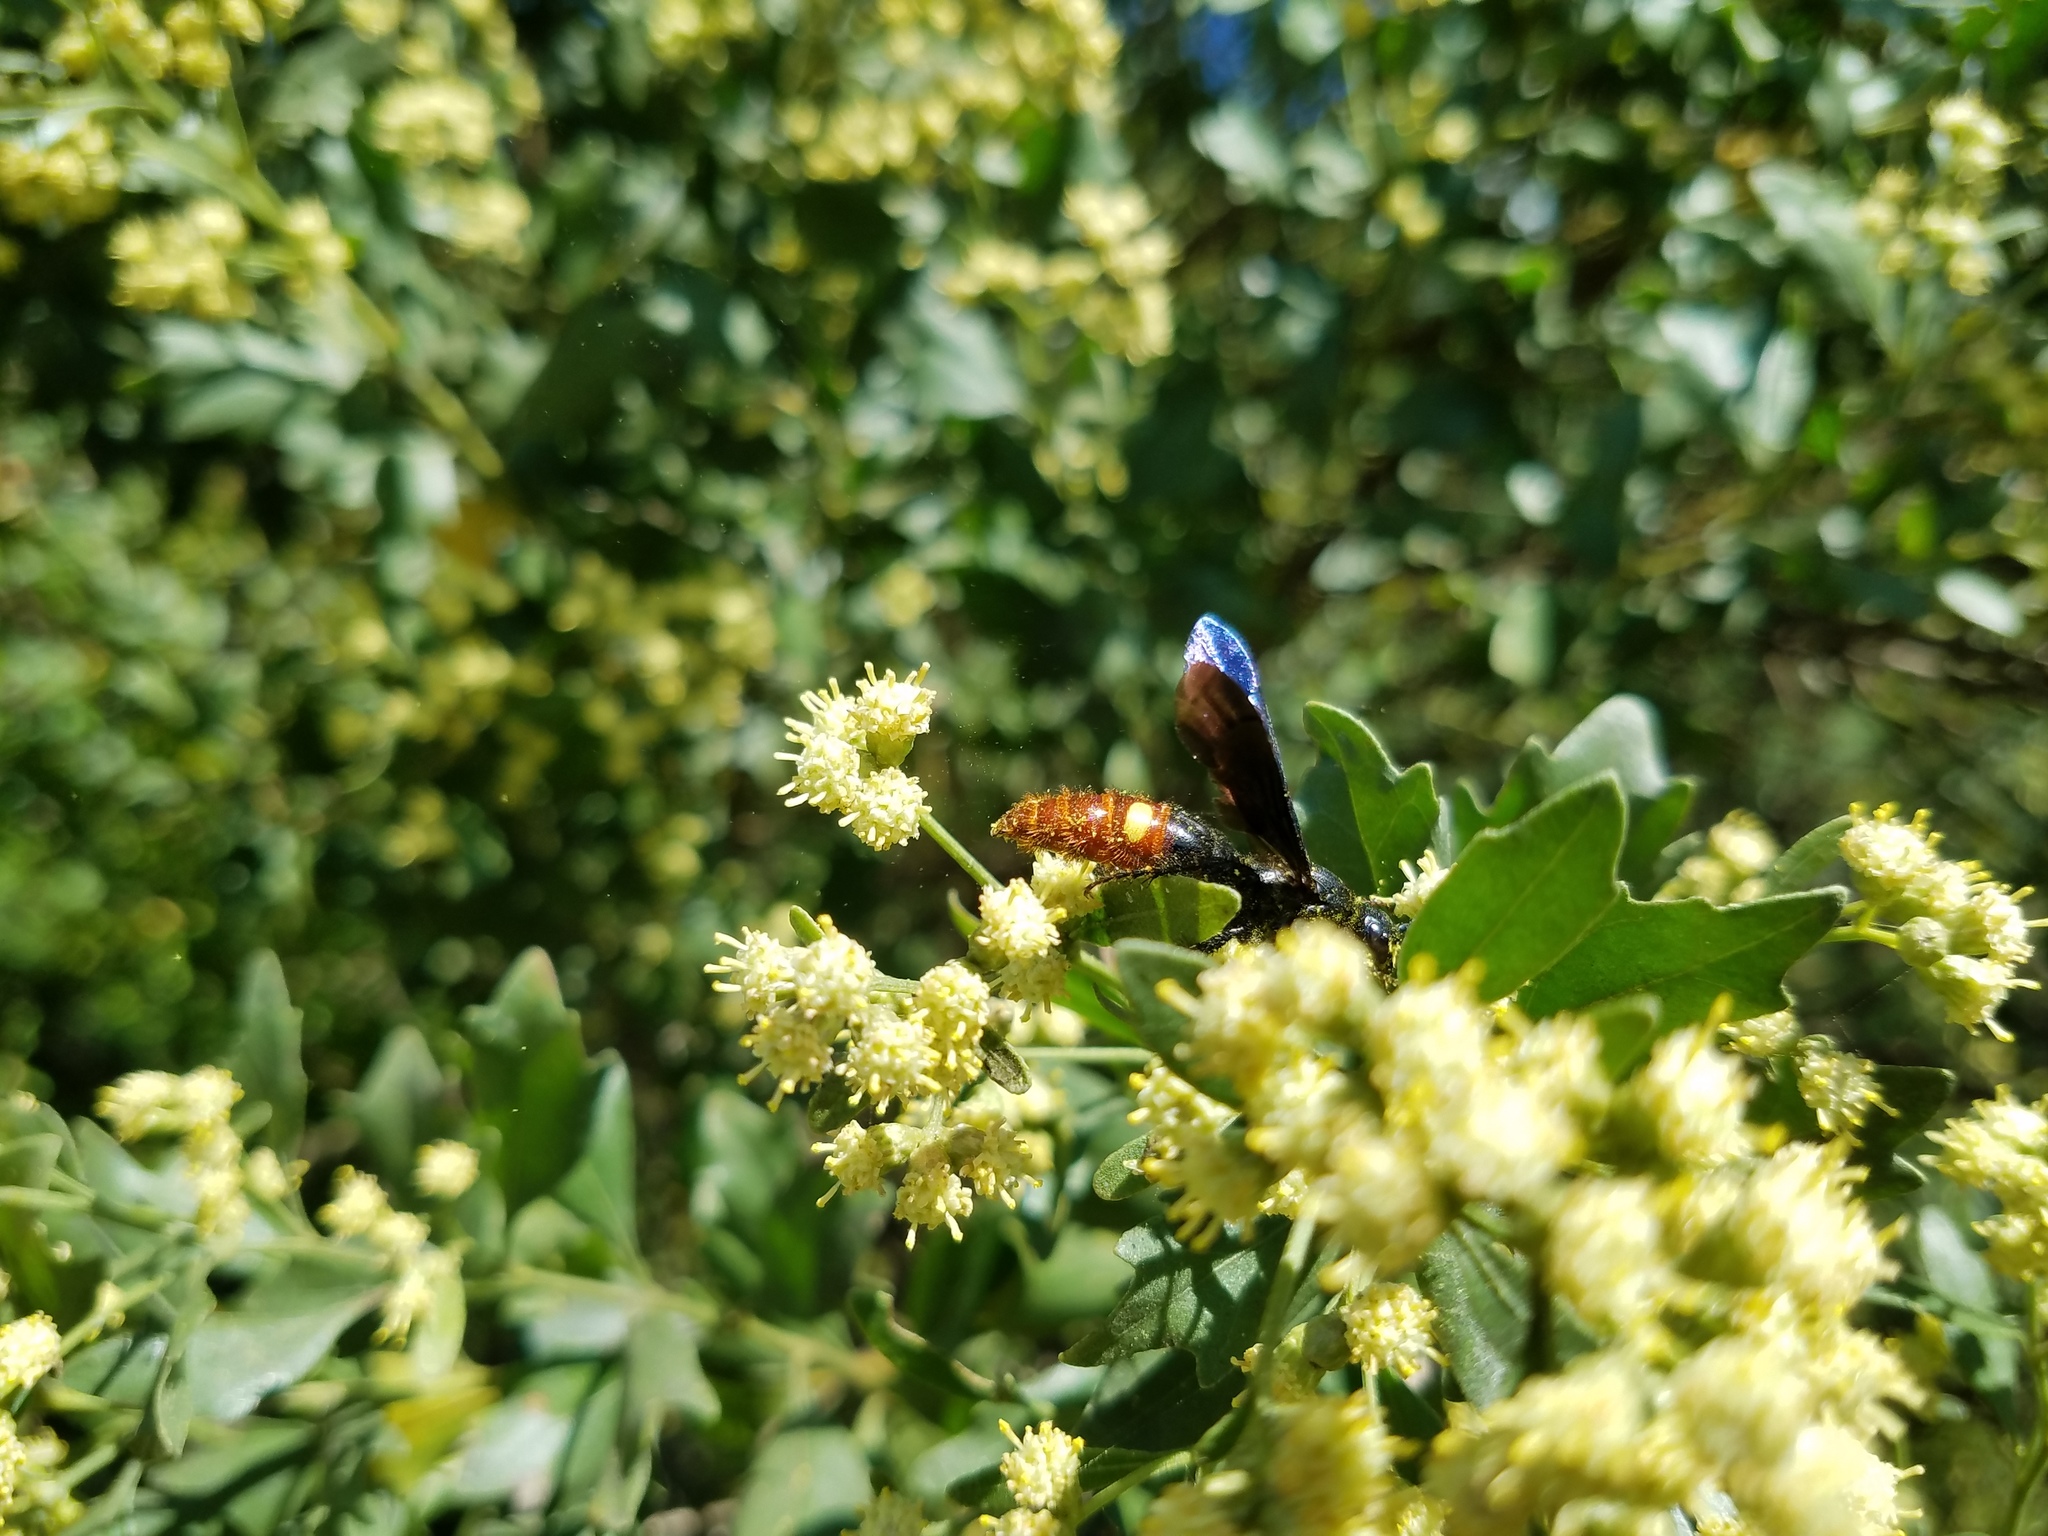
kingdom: Animalia
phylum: Arthropoda
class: Insecta
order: Hymenoptera
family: Scoliidae
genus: Scolia
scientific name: Scolia dubia
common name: Blue-winged scoliid wasp
